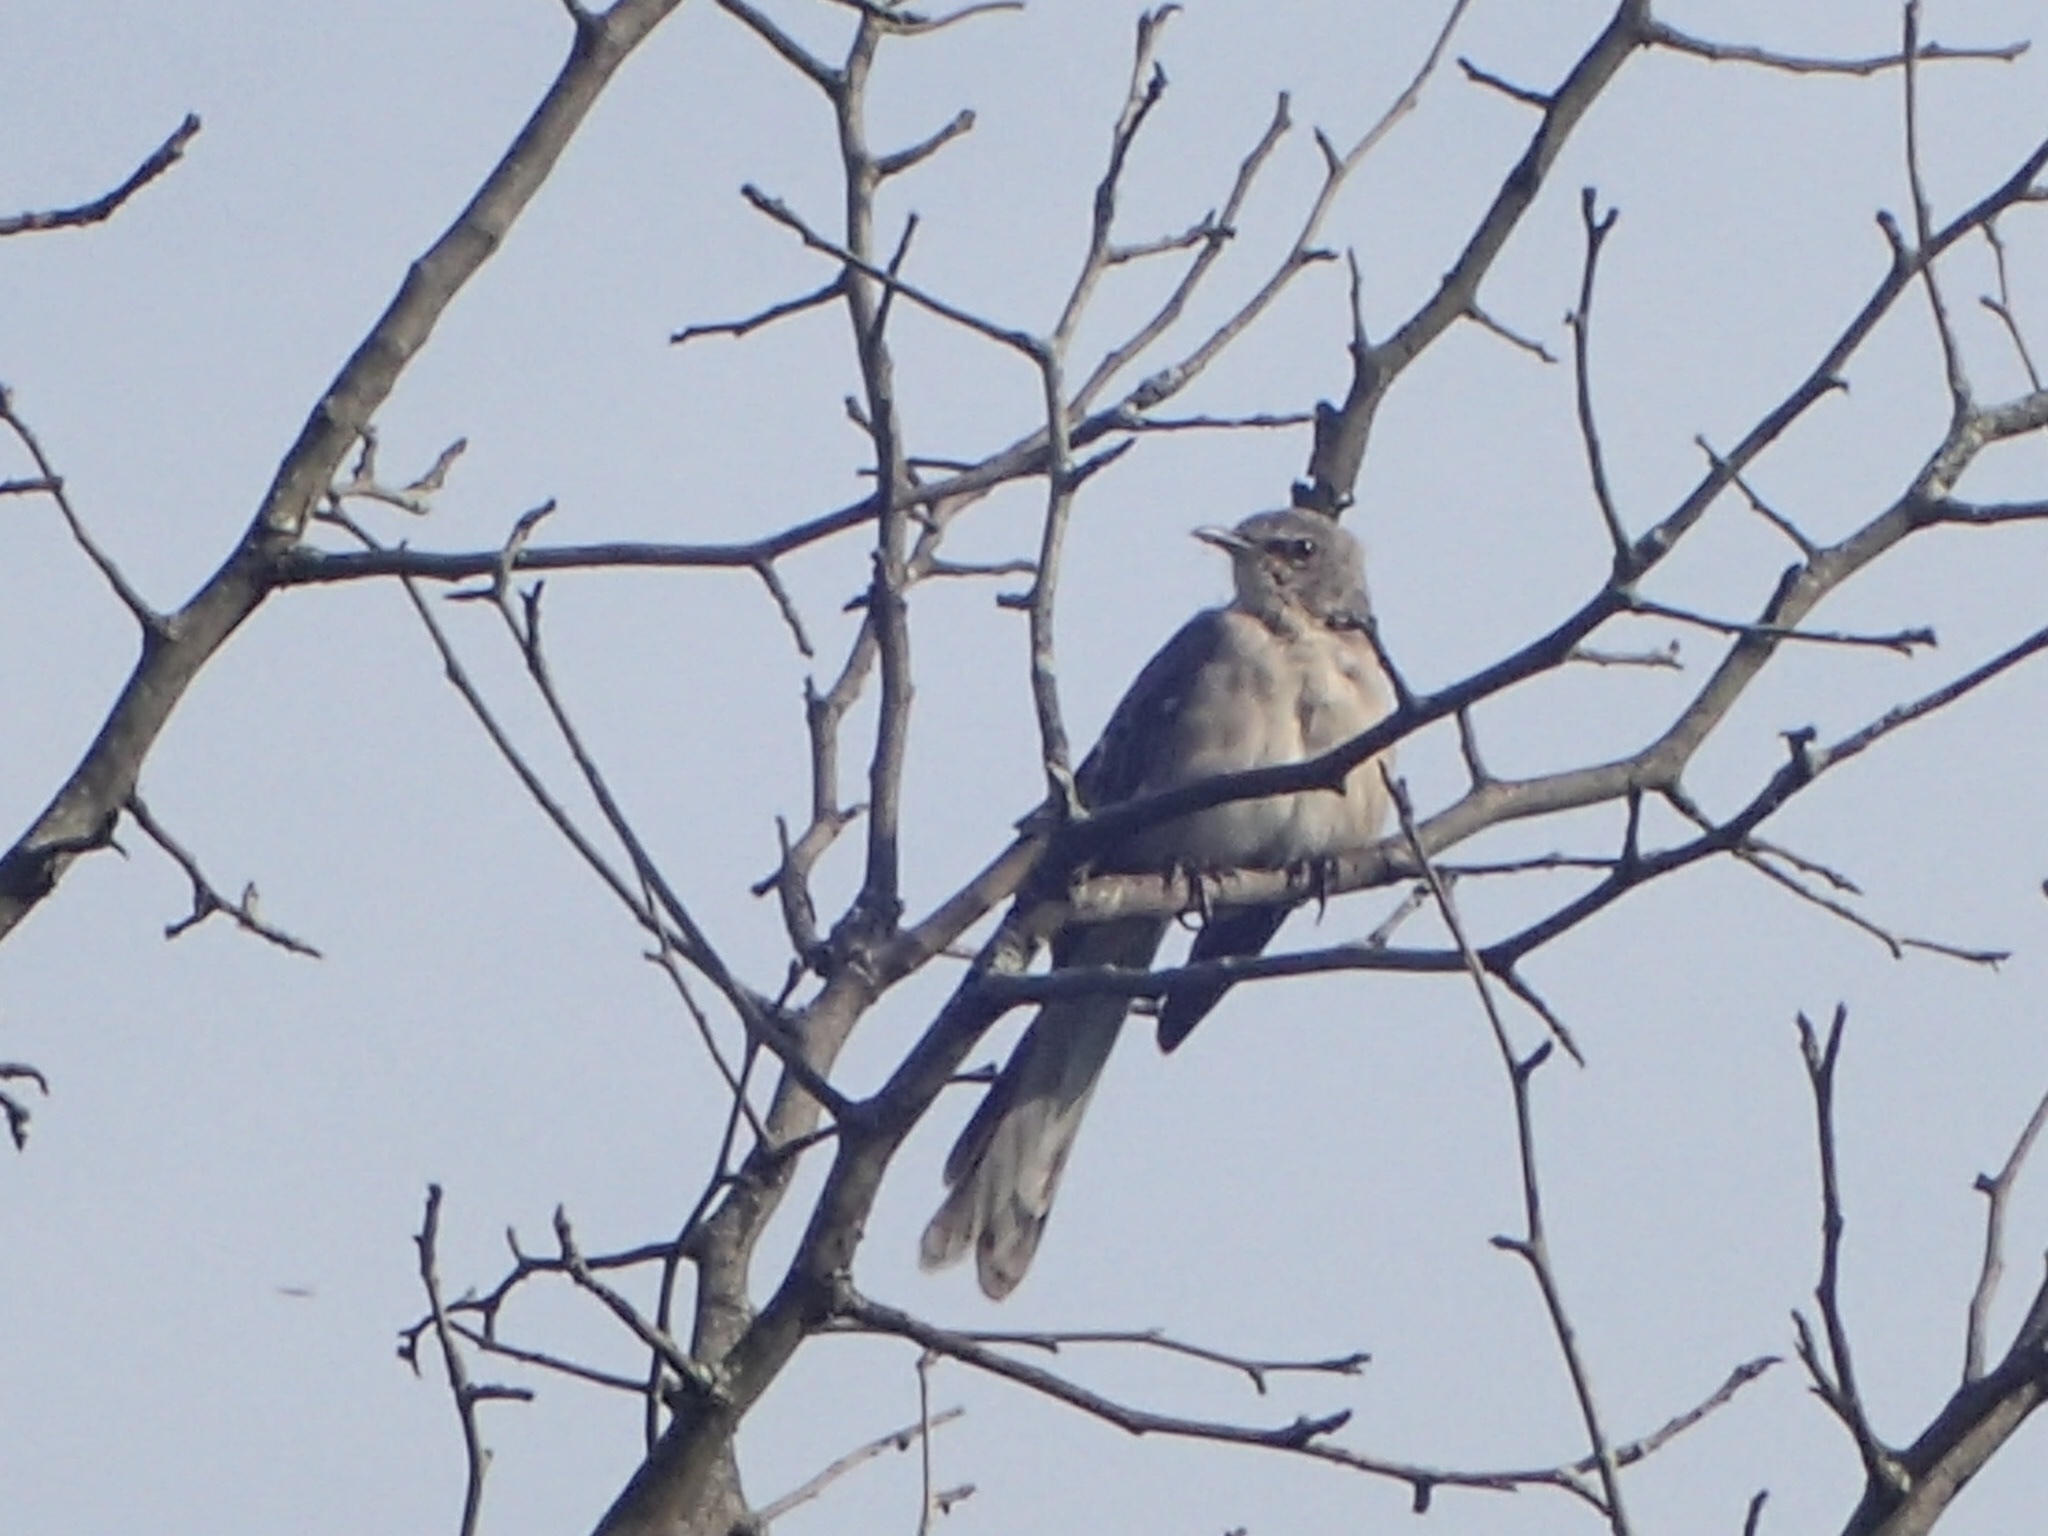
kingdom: Animalia
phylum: Chordata
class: Aves
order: Passeriformes
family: Mimidae
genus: Mimus
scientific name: Mimus polyglottos
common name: Northern mockingbird
